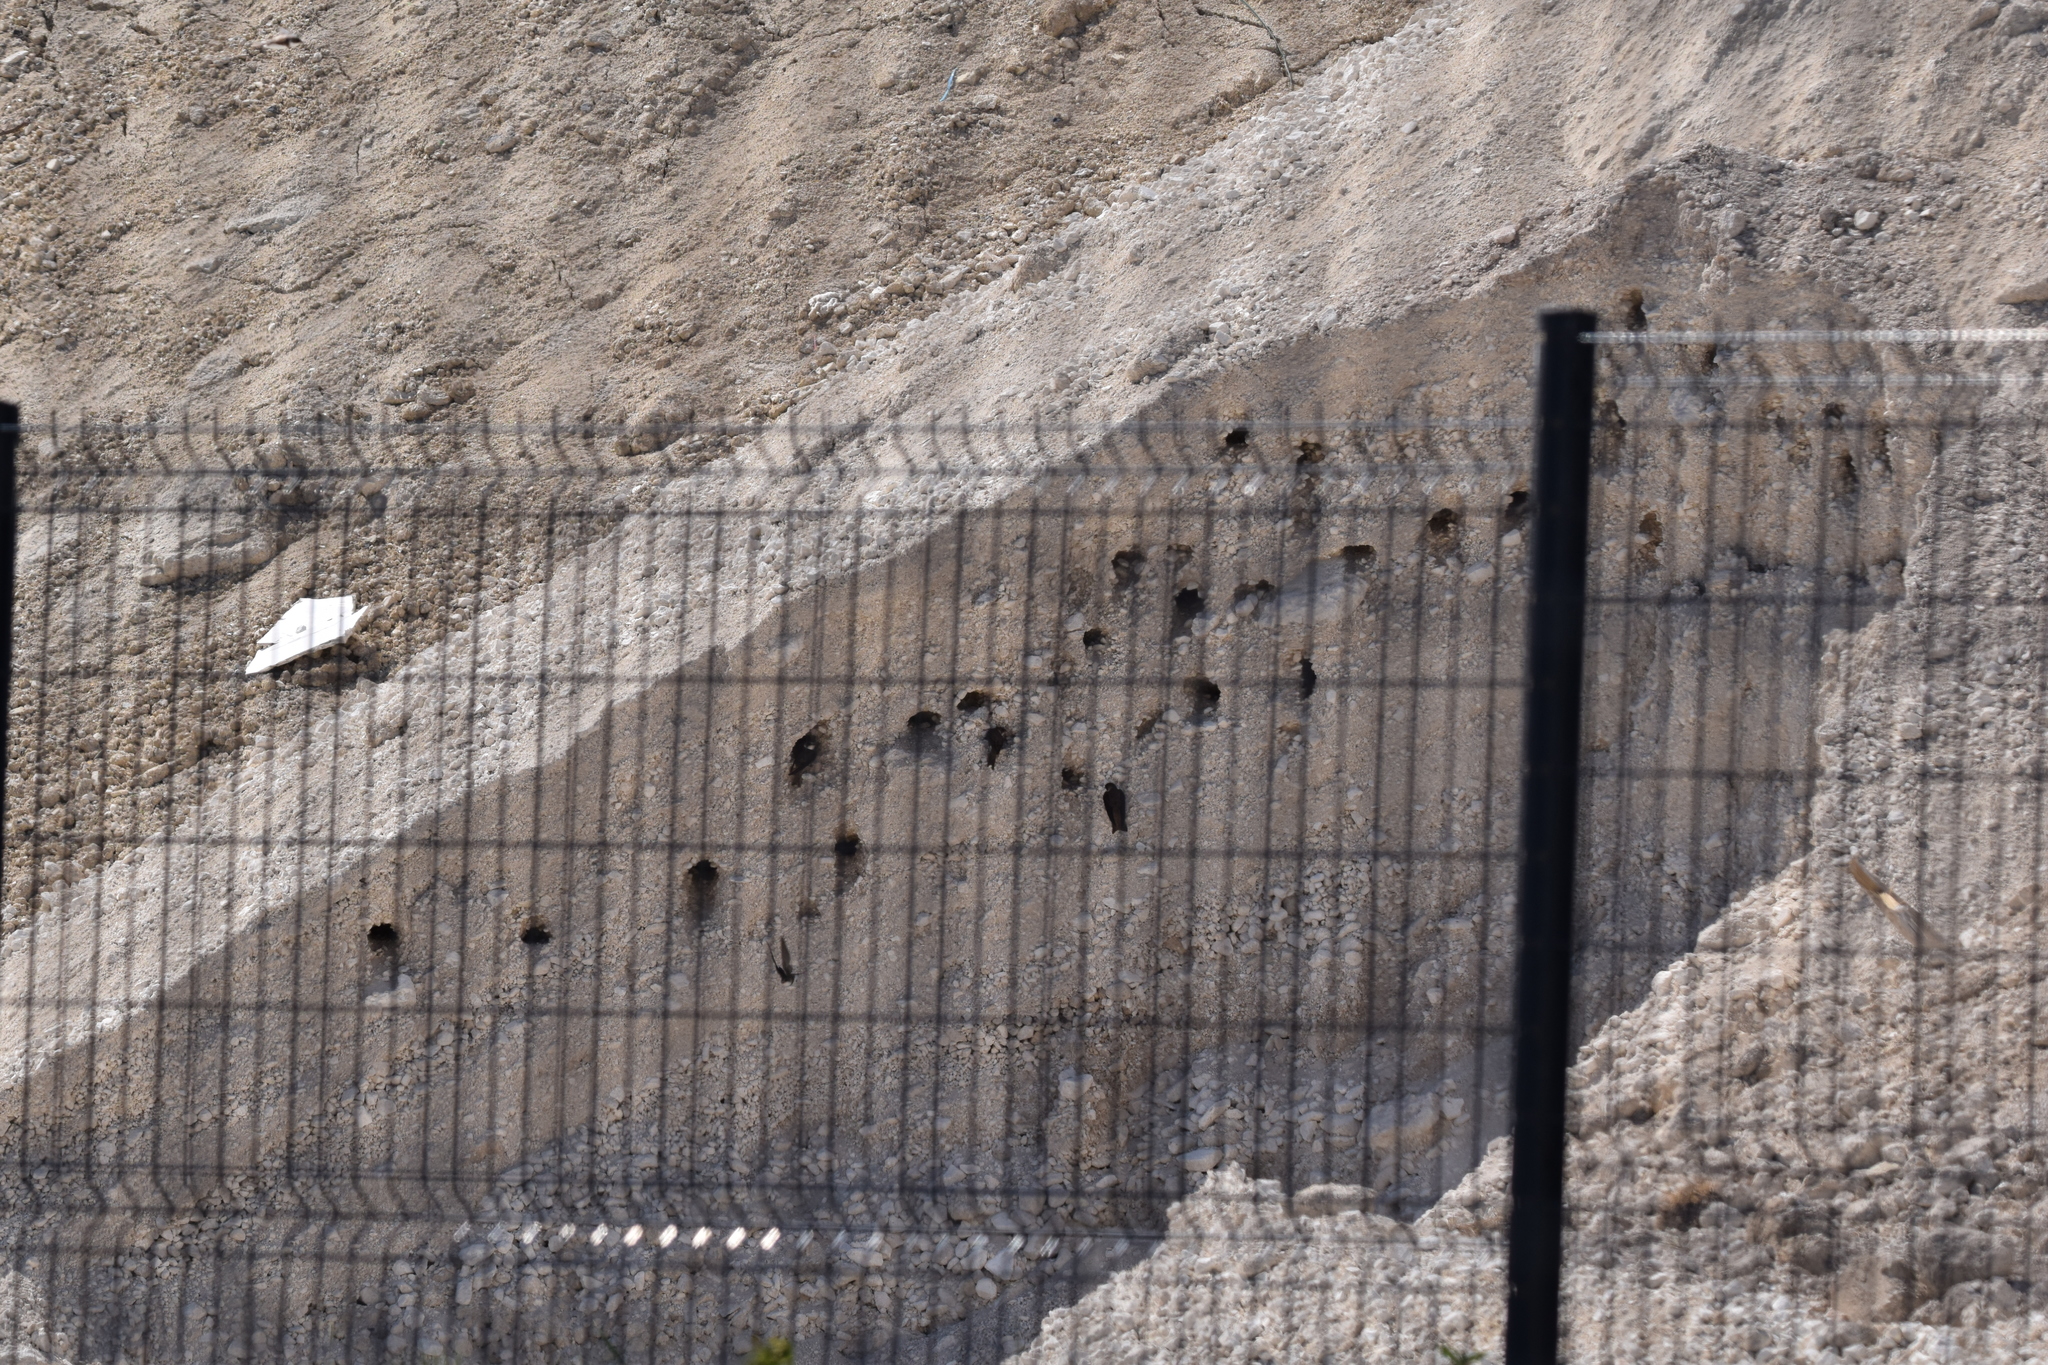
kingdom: Animalia
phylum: Chordata
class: Aves
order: Passeriformes
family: Hirundinidae
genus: Riparia
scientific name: Riparia riparia
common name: Sand martin
